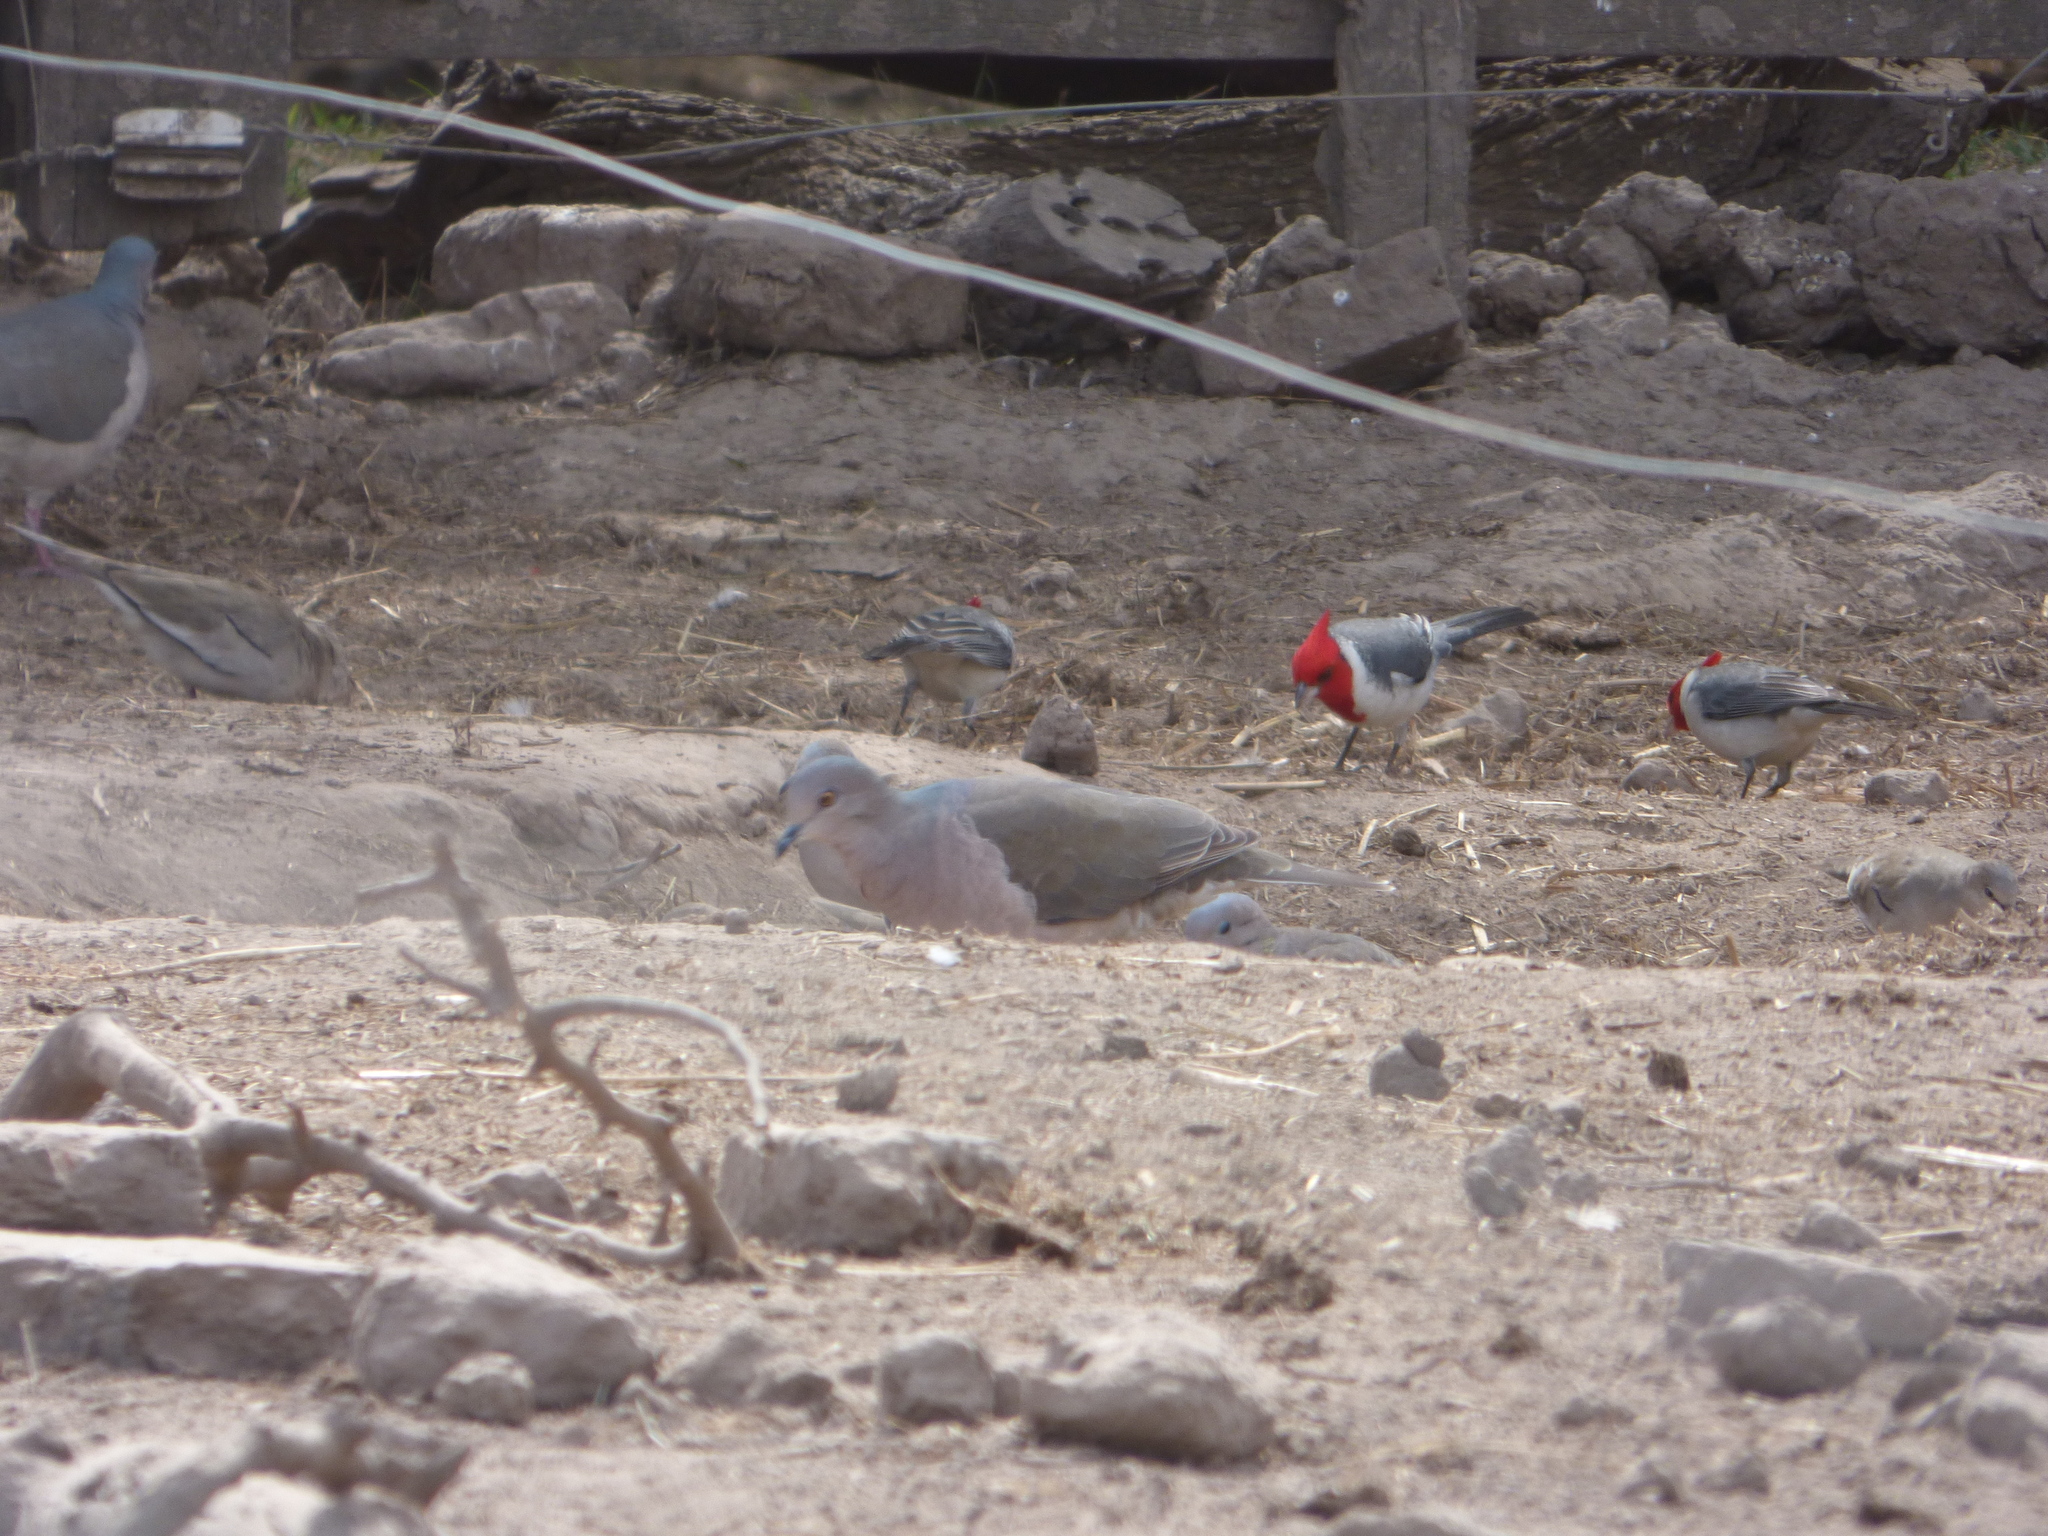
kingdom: Animalia
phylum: Chordata
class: Aves
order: Columbiformes
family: Columbidae
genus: Leptotila
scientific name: Leptotila verreauxi
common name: White-tipped dove
